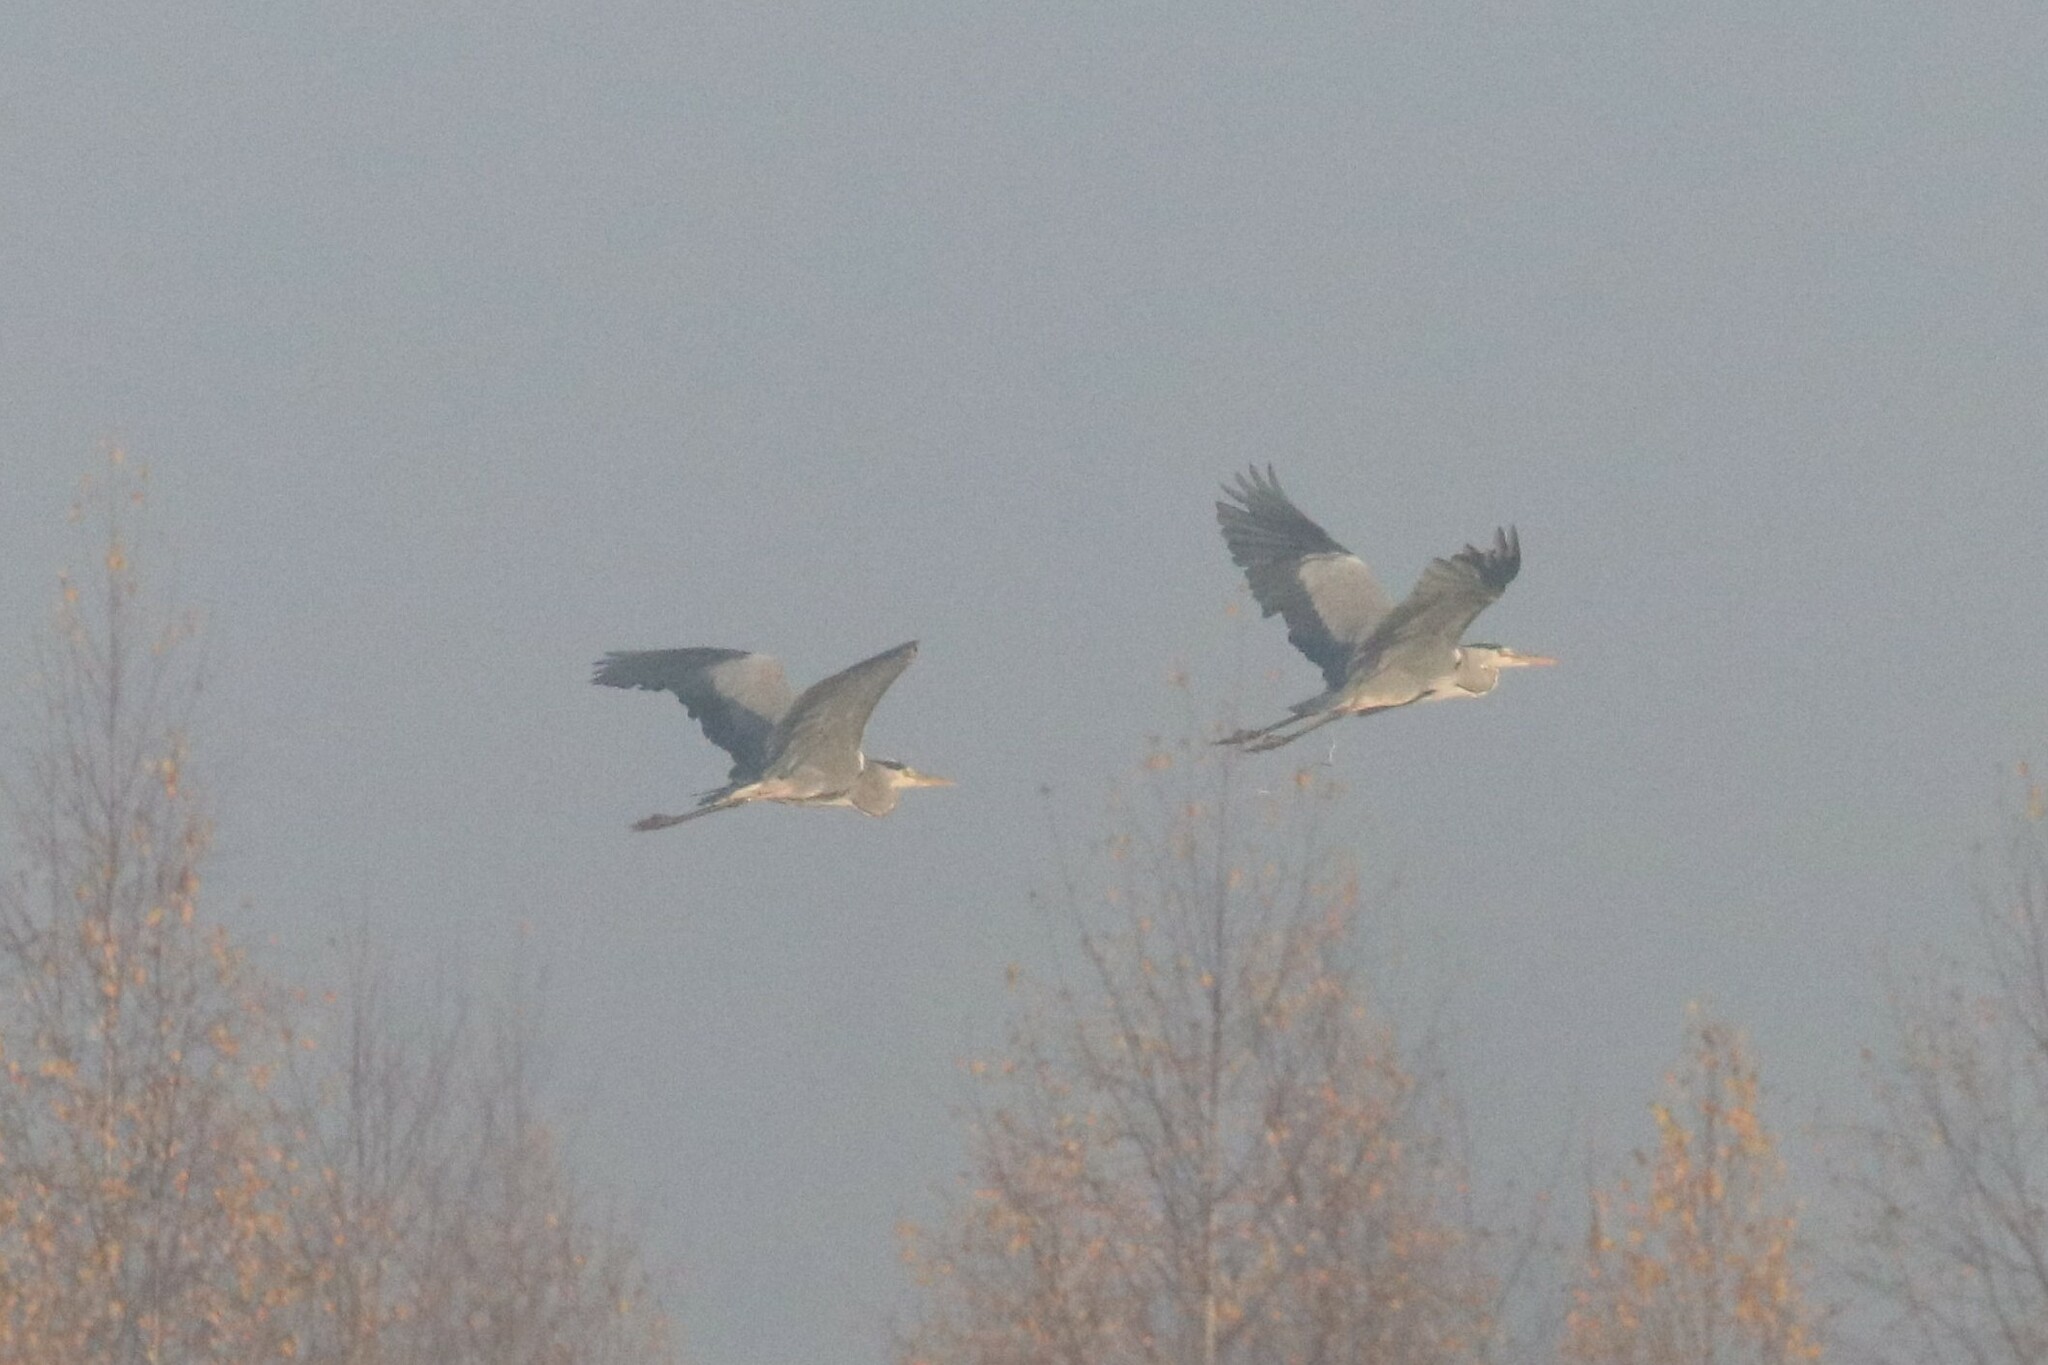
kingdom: Animalia
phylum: Chordata
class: Aves
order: Pelecaniformes
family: Ardeidae
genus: Ardea
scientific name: Ardea cinerea
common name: Grey heron
